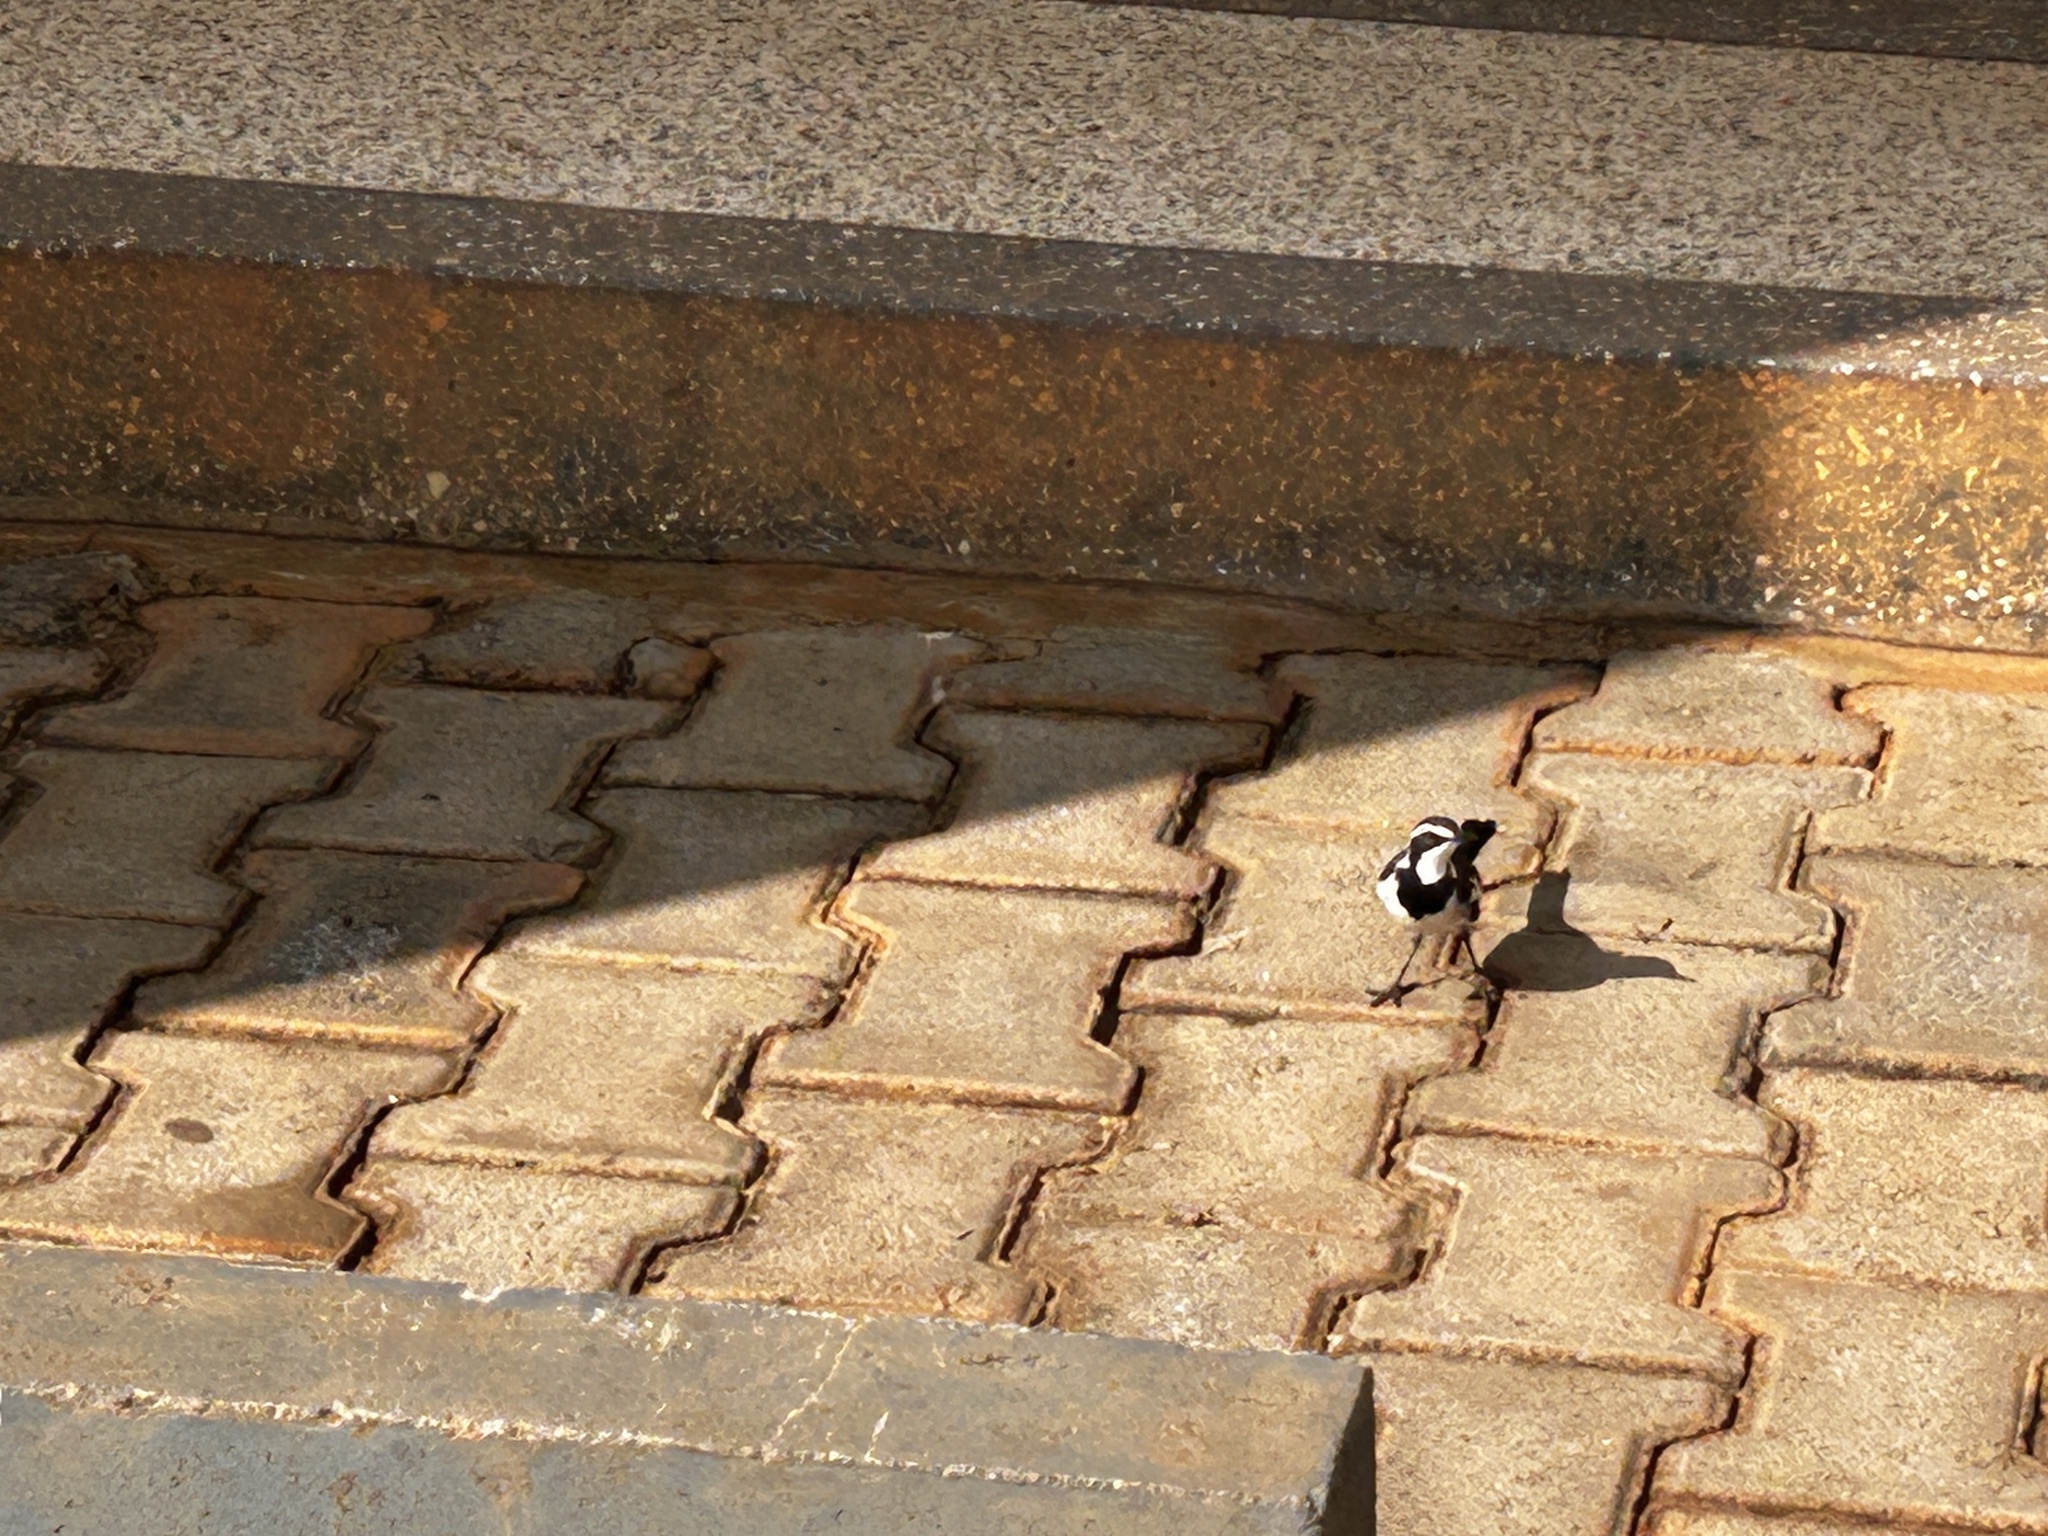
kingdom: Animalia
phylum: Chordata
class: Aves
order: Passeriformes
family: Motacillidae
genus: Motacilla
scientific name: Motacilla aguimp
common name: African pied wagtail
